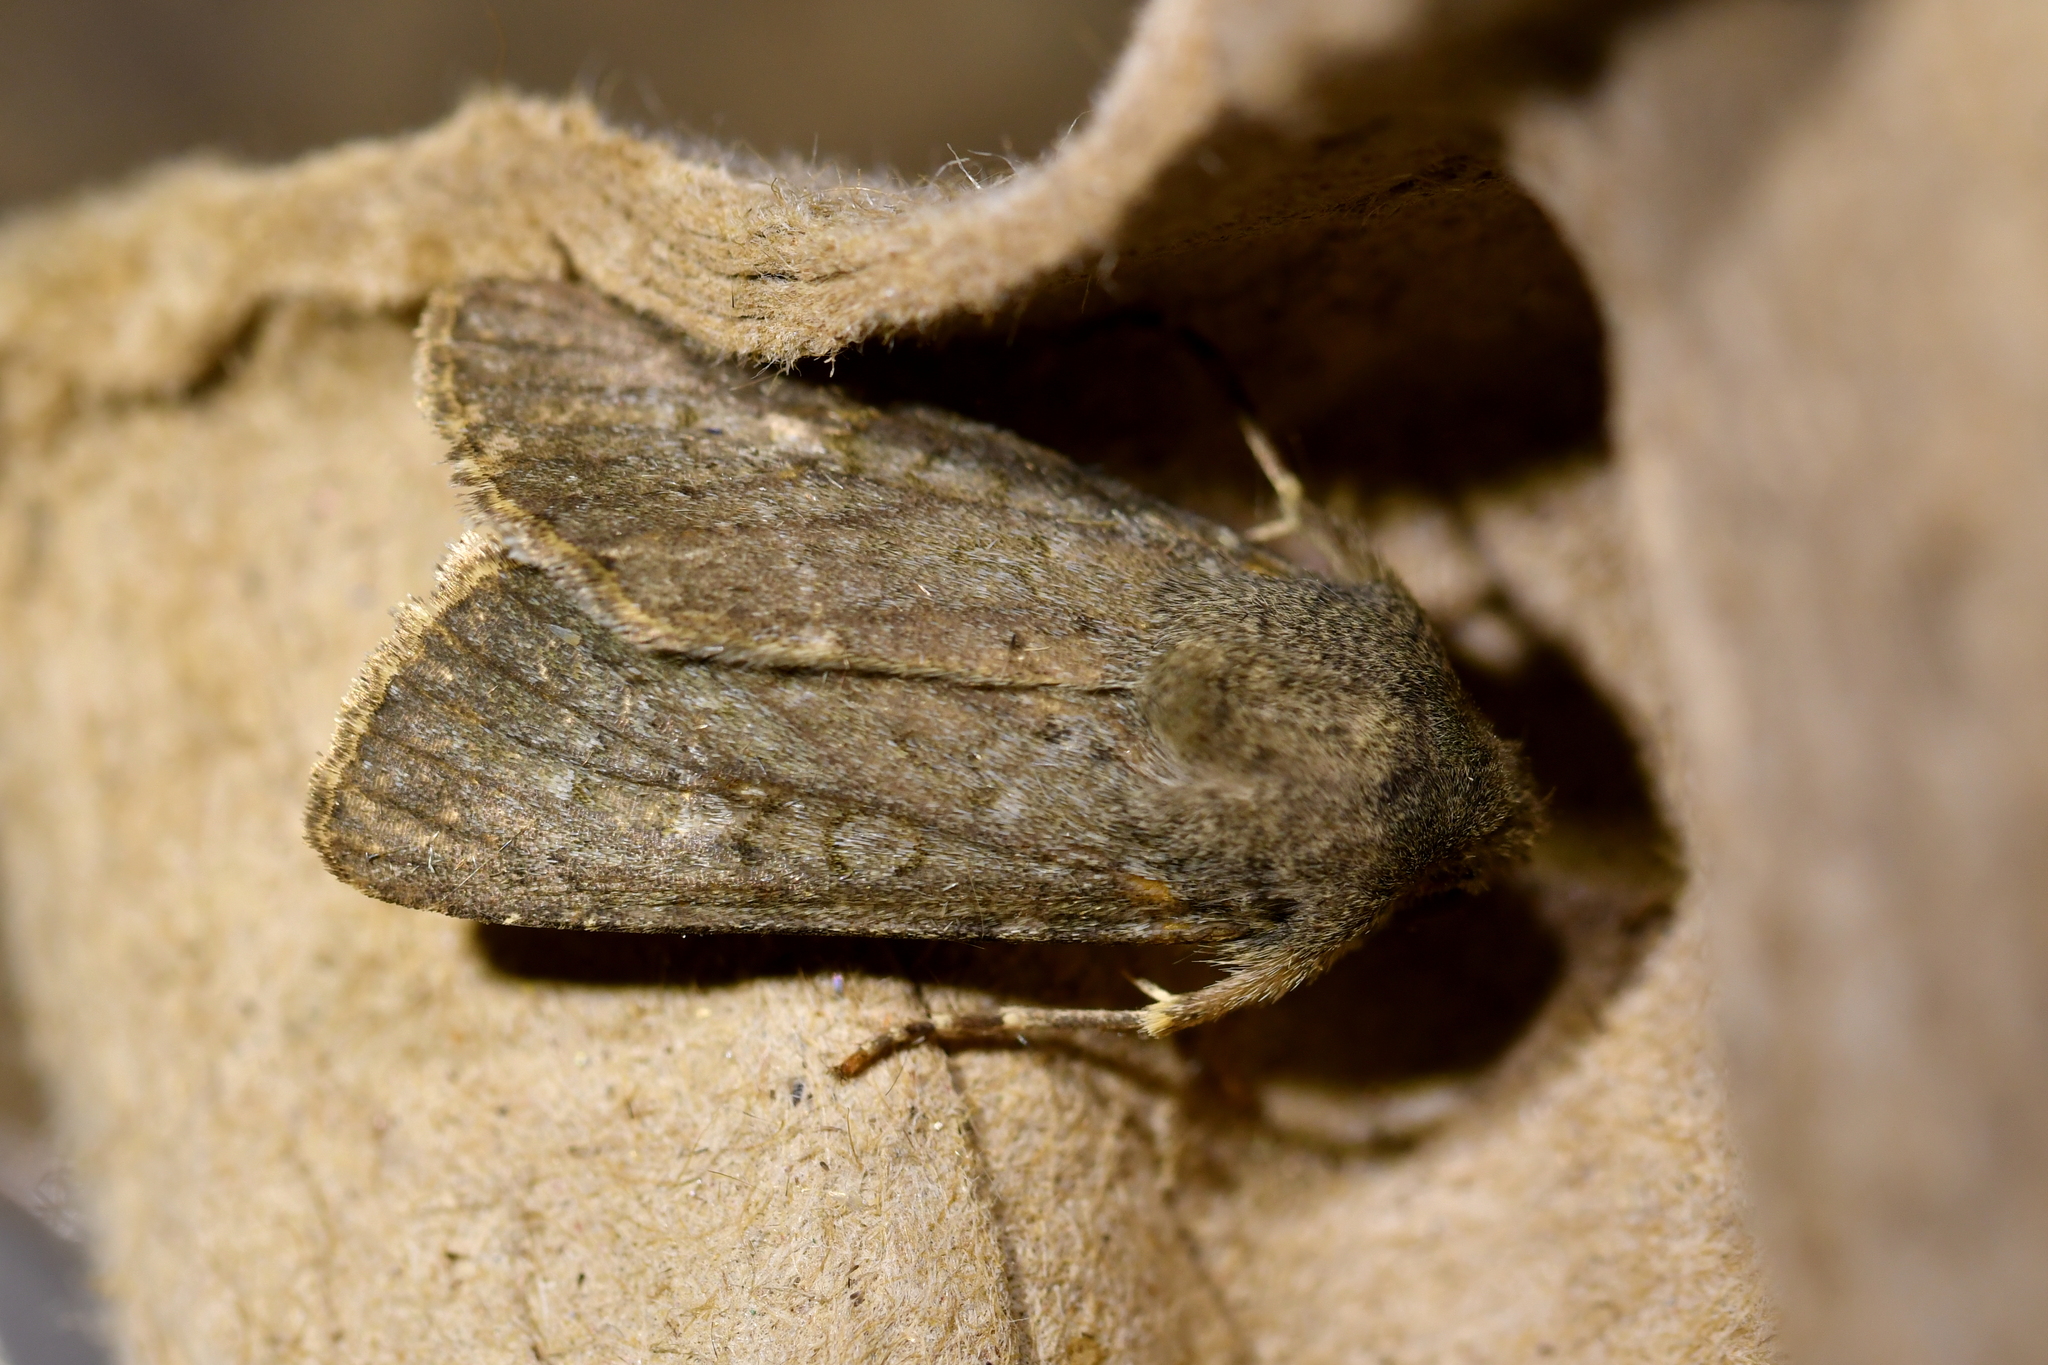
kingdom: Animalia
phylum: Arthropoda
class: Insecta
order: Lepidoptera
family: Noctuidae
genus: Ichneutica
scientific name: Ichneutica moderata
